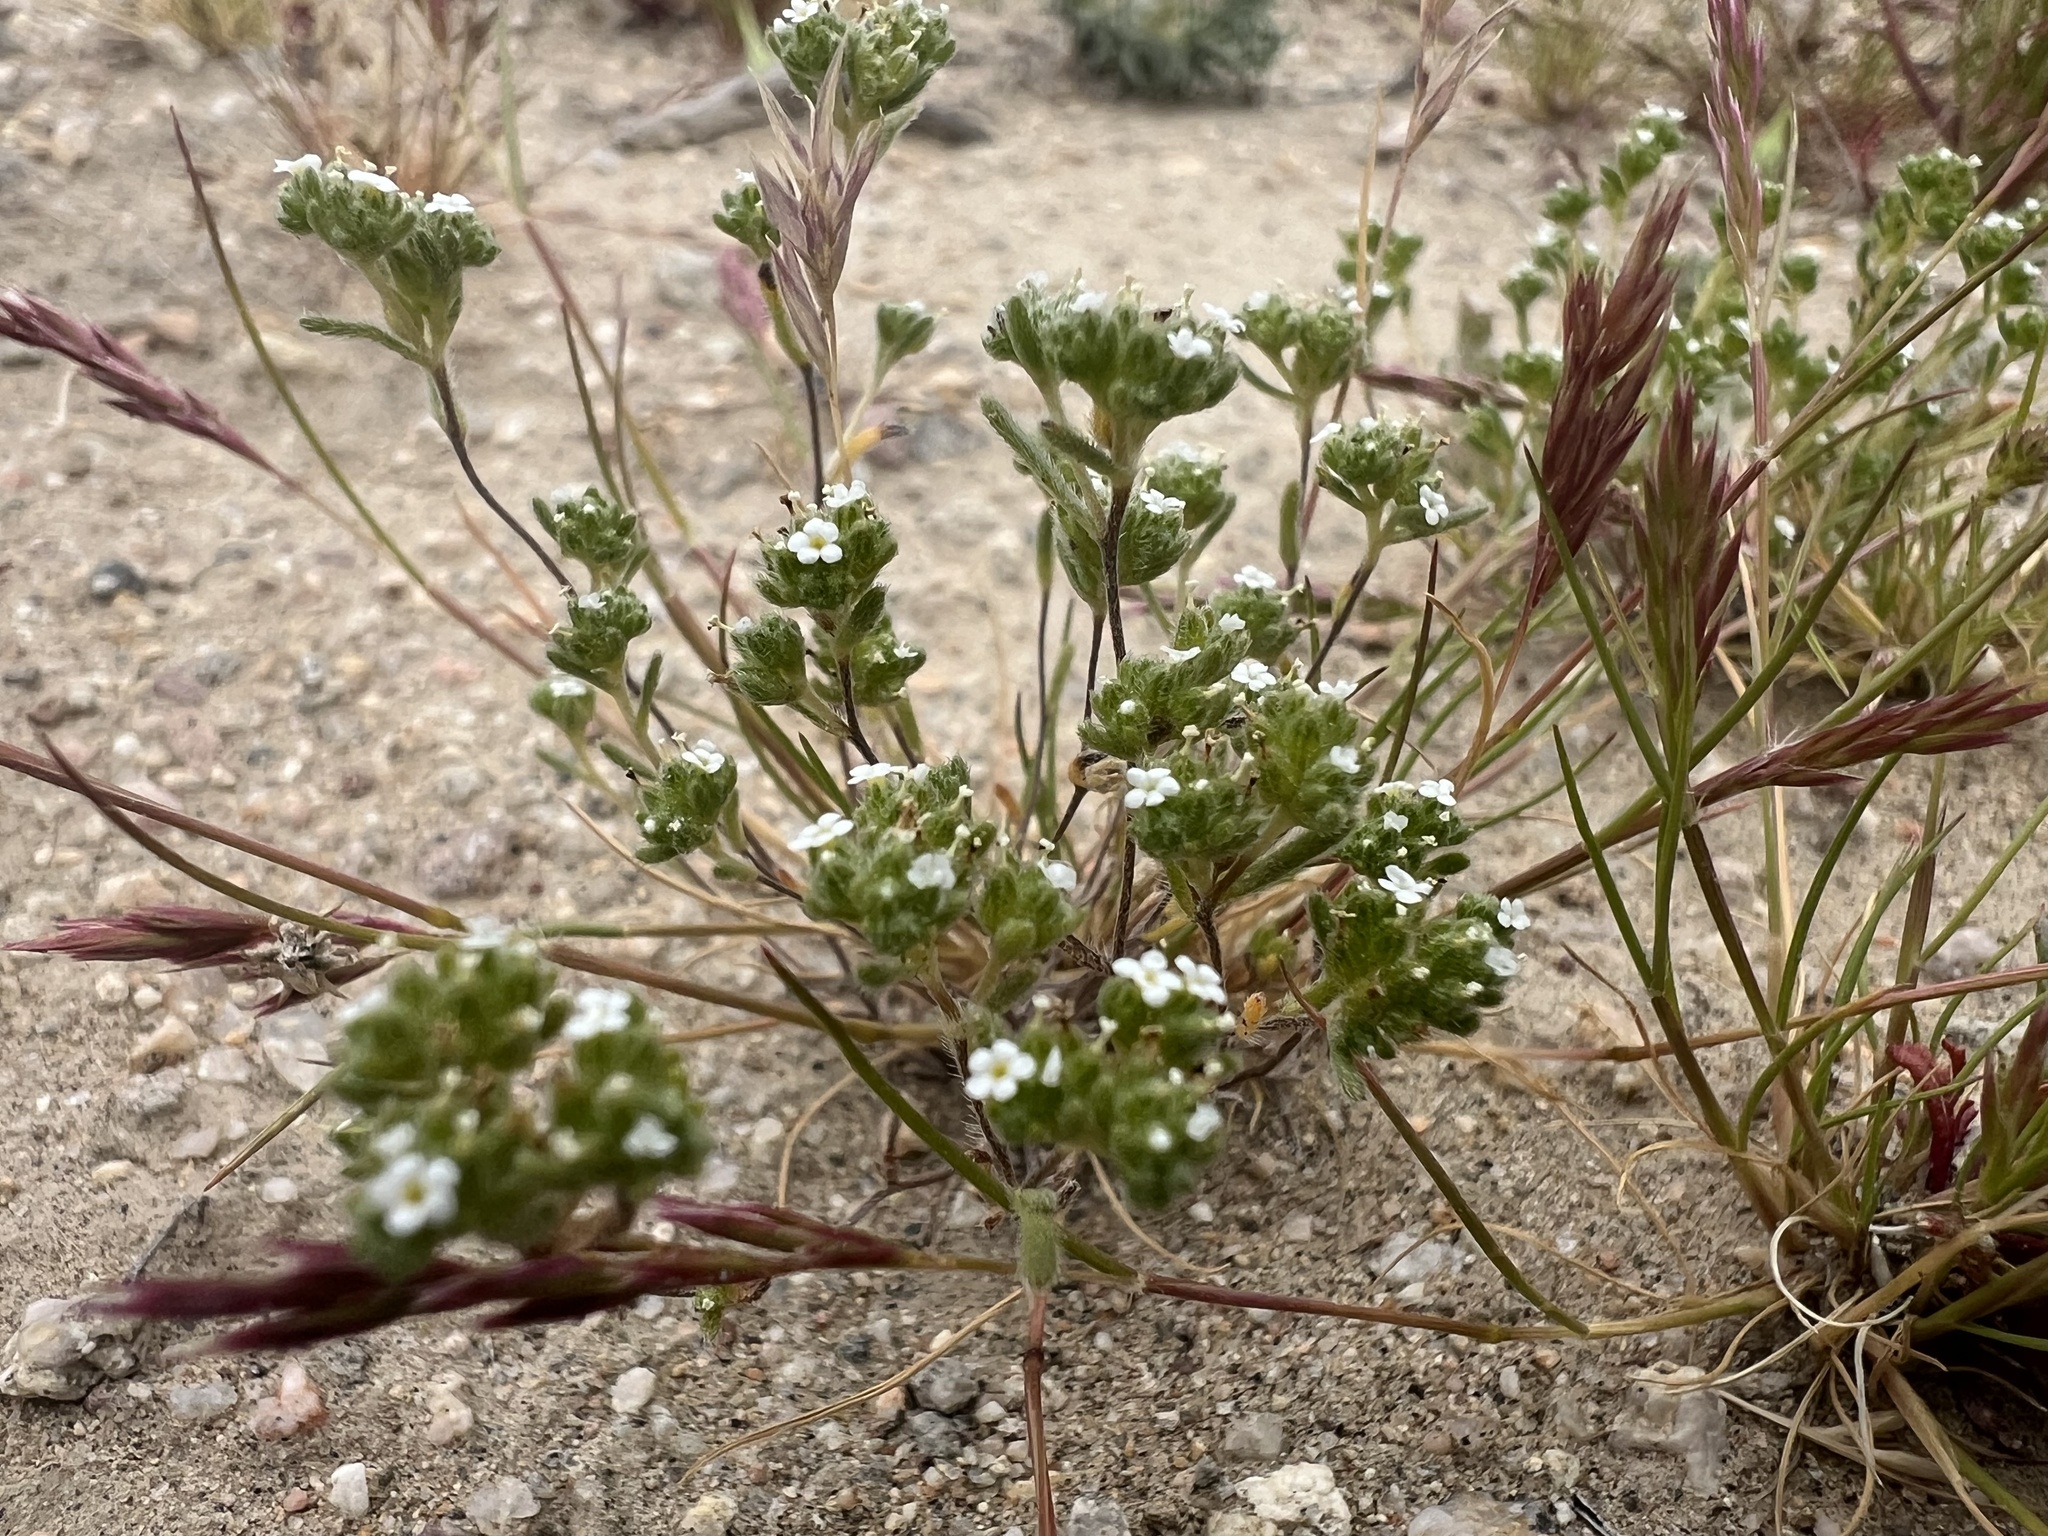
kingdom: Plantae
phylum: Tracheophyta
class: Magnoliopsida
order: Boraginales
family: Boraginaceae
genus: Eremocarya
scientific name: Eremocarya micrantha
